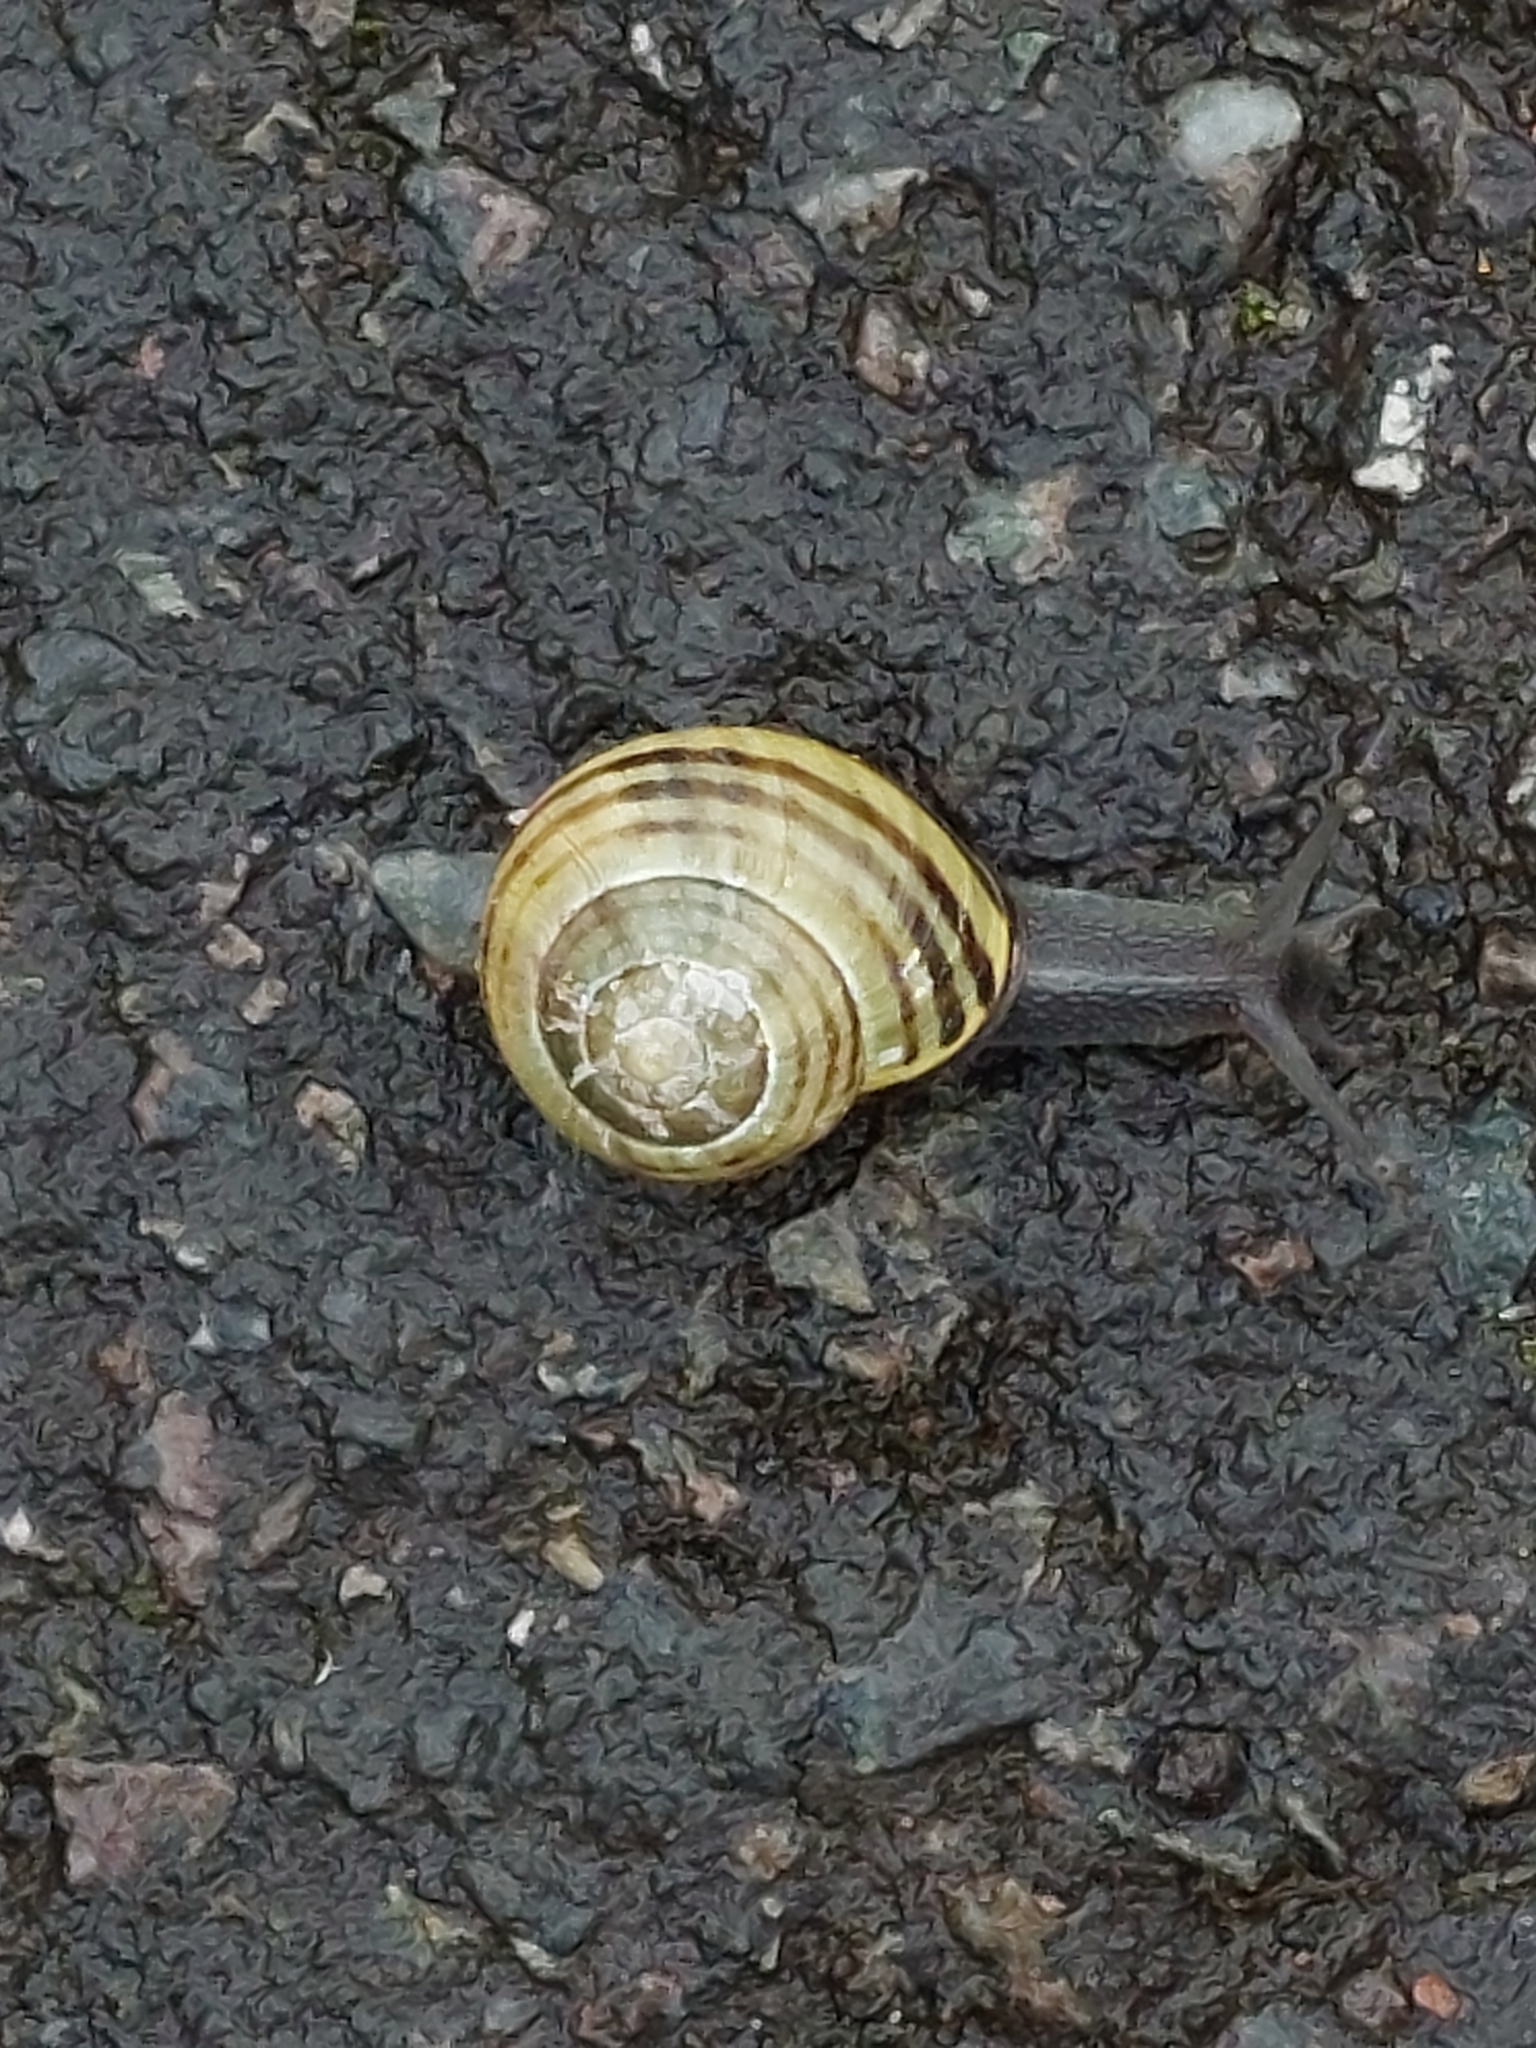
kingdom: Animalia
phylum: Mollusca
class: Gastropoda
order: Stylommatophora
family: Helicidae
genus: Cepaea
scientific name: Cepaea nemoralis
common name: Grovesnail
